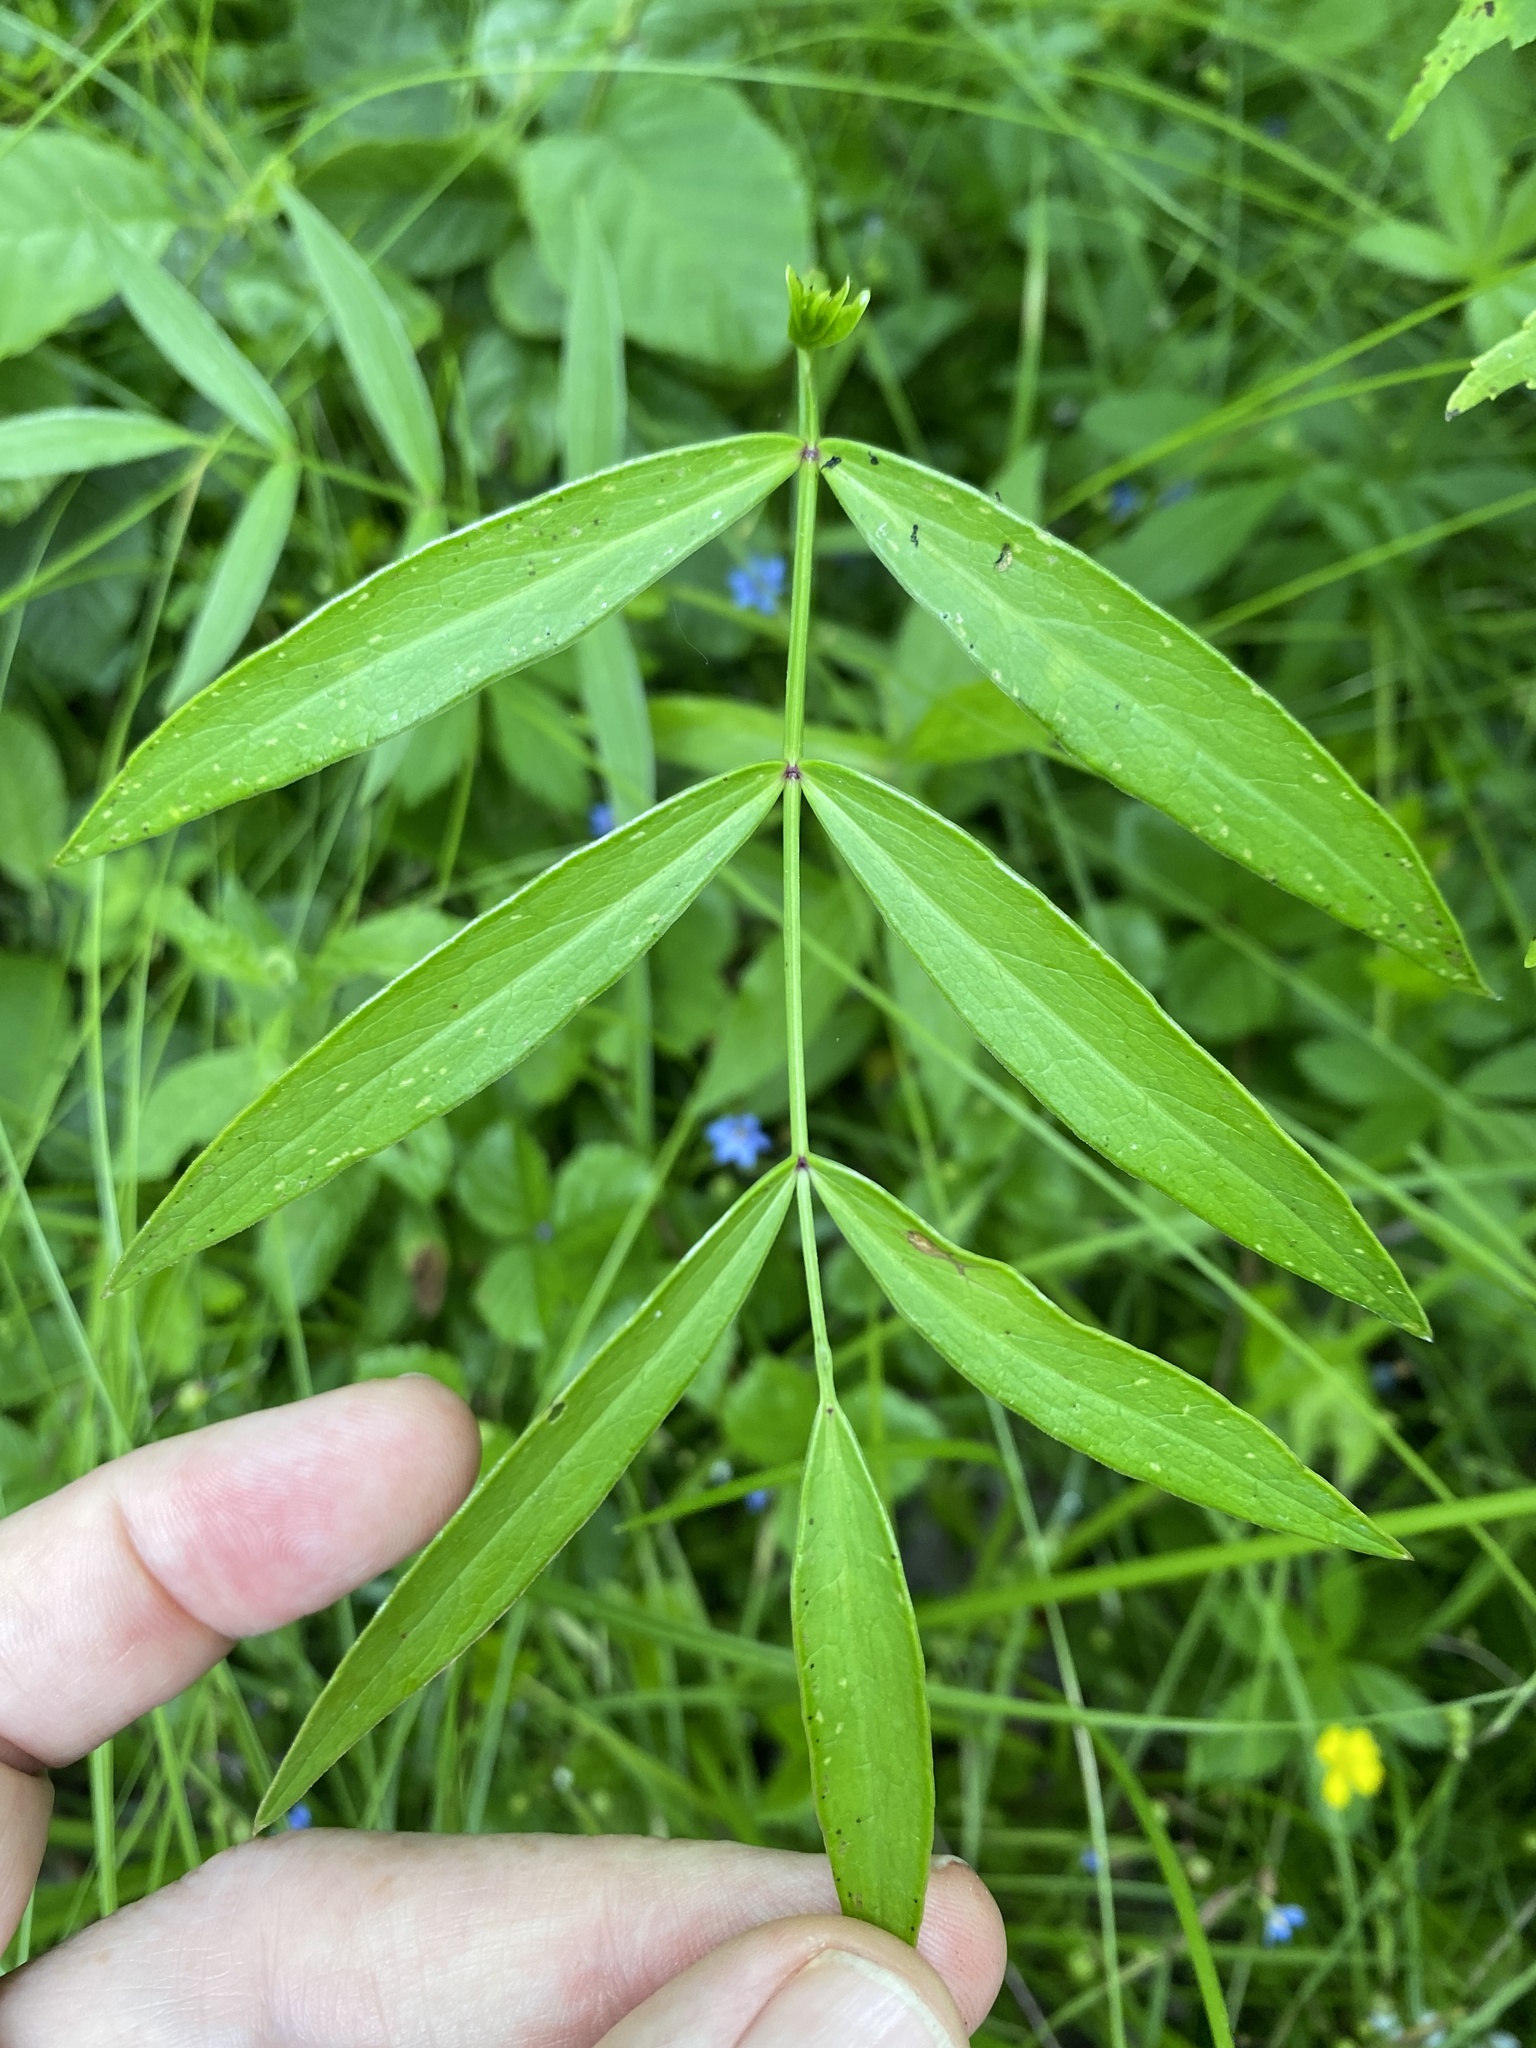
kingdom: Plantae
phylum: Tracheophyta
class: Magnoliopsida
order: Apiales
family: Apiaceae
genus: Oxypolis
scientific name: Oxypolis rigidior
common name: Cowbane
